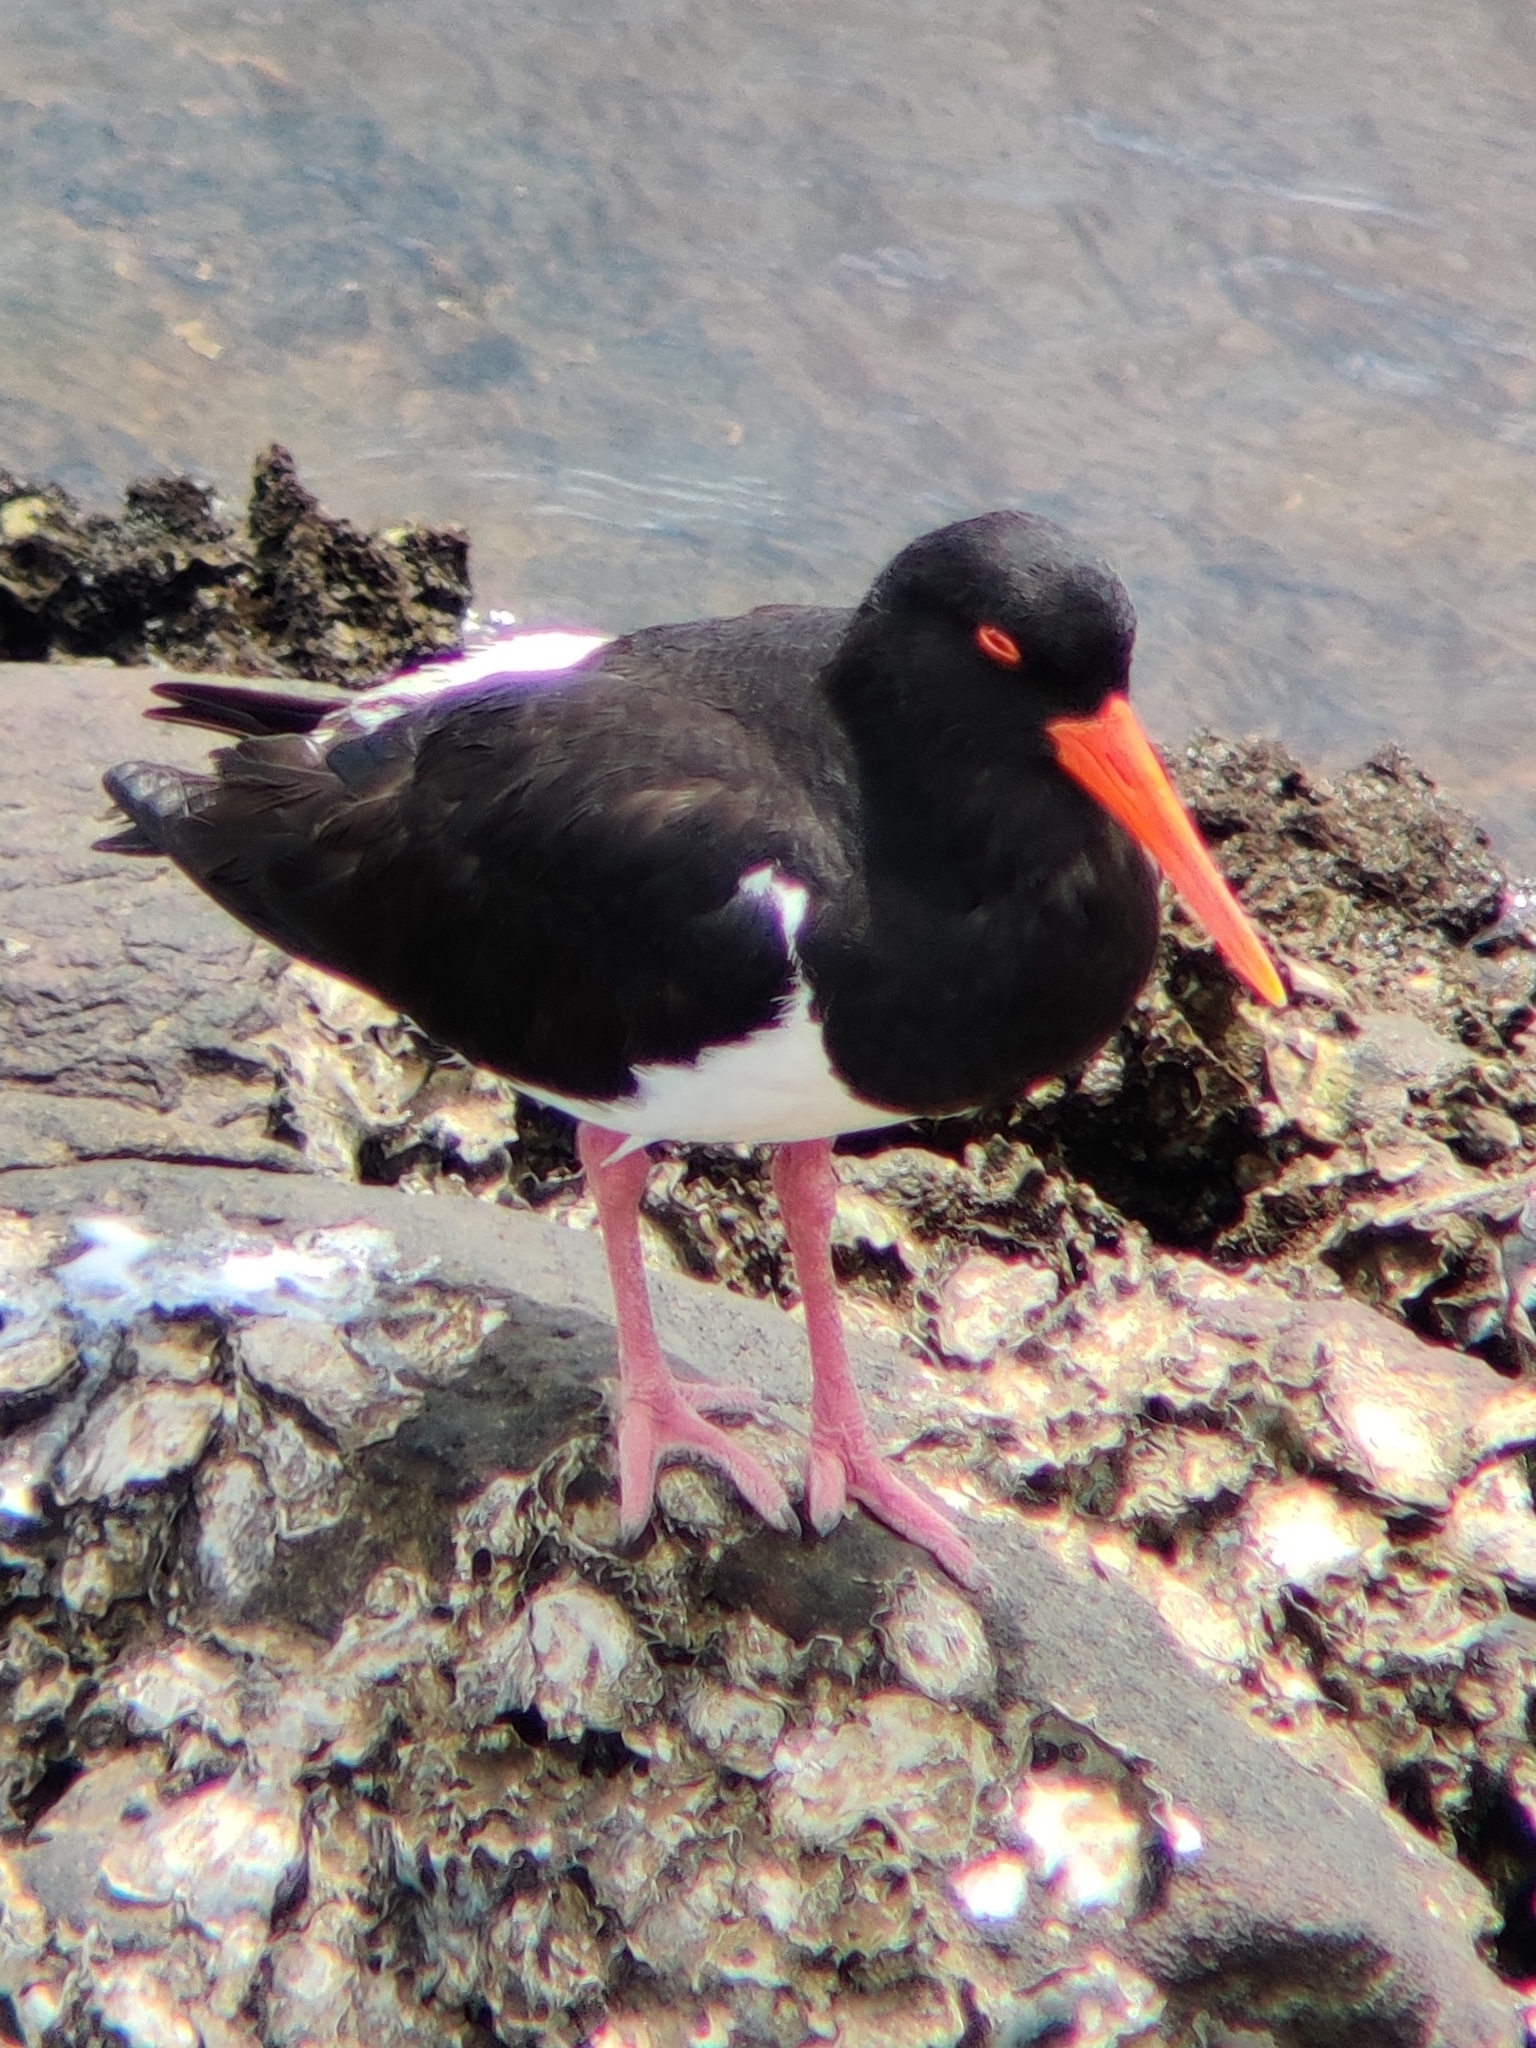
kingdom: Animalia
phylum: Chordata
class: Aves
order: Charadriiformes
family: Haematopodidae
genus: Haematopus
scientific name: Haematopus longirostris
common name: Pied oystercatcher
